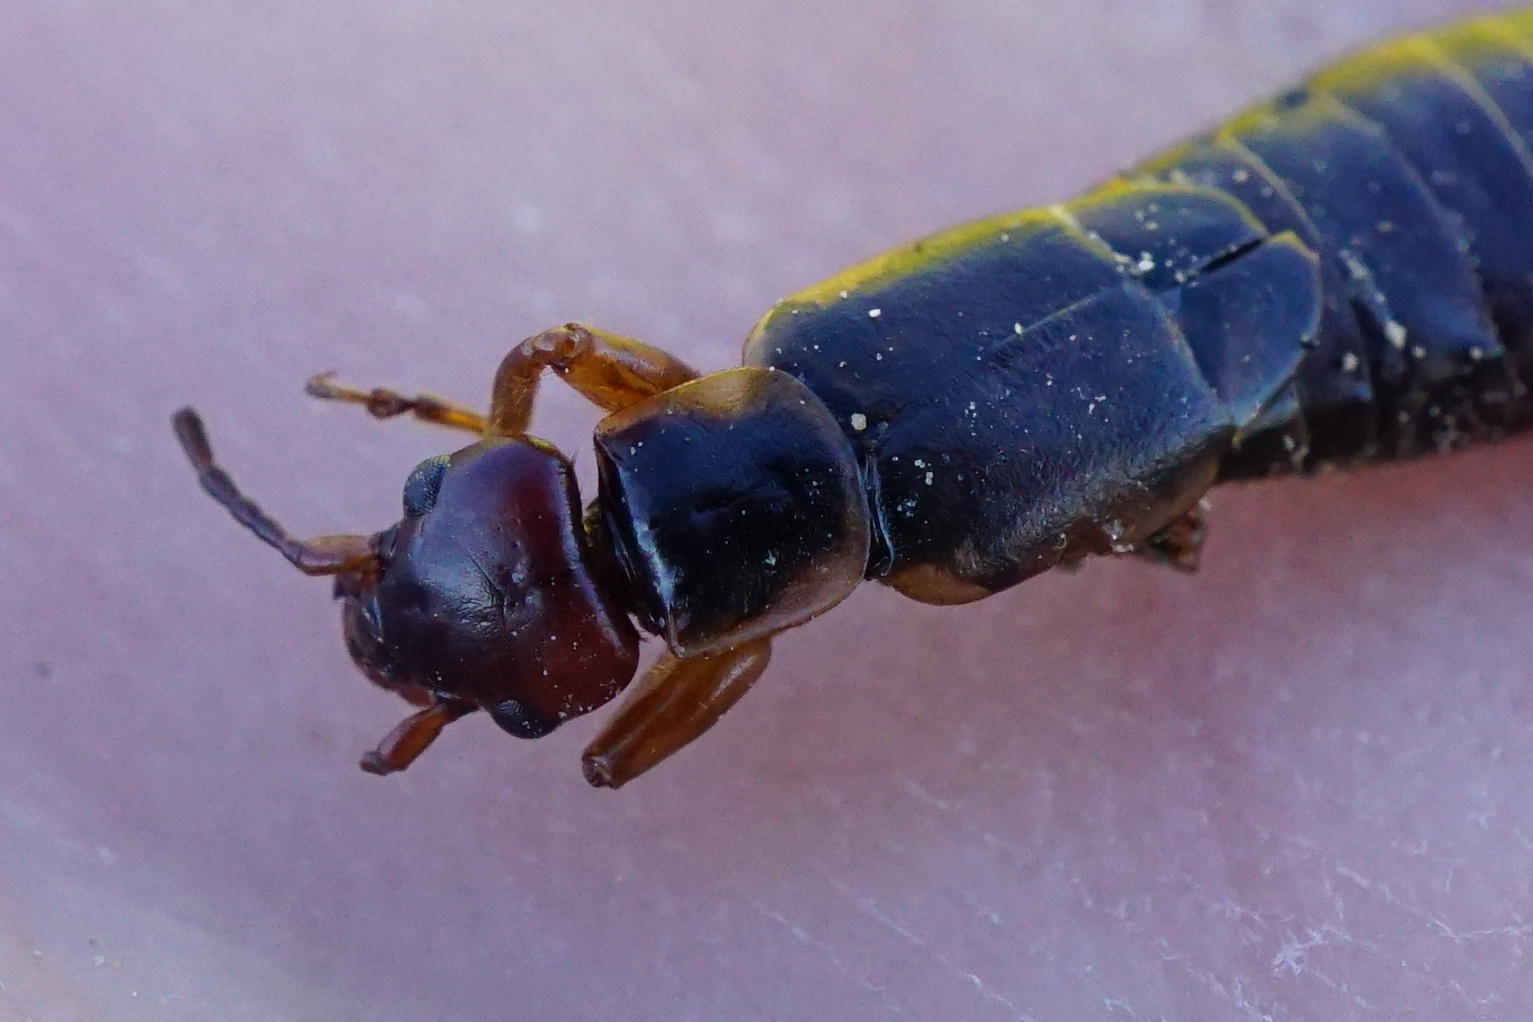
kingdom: Animalia
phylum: Arthropoda
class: Insecta
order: Dermaptera
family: Forficulidae
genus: Forficula
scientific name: Forficula
